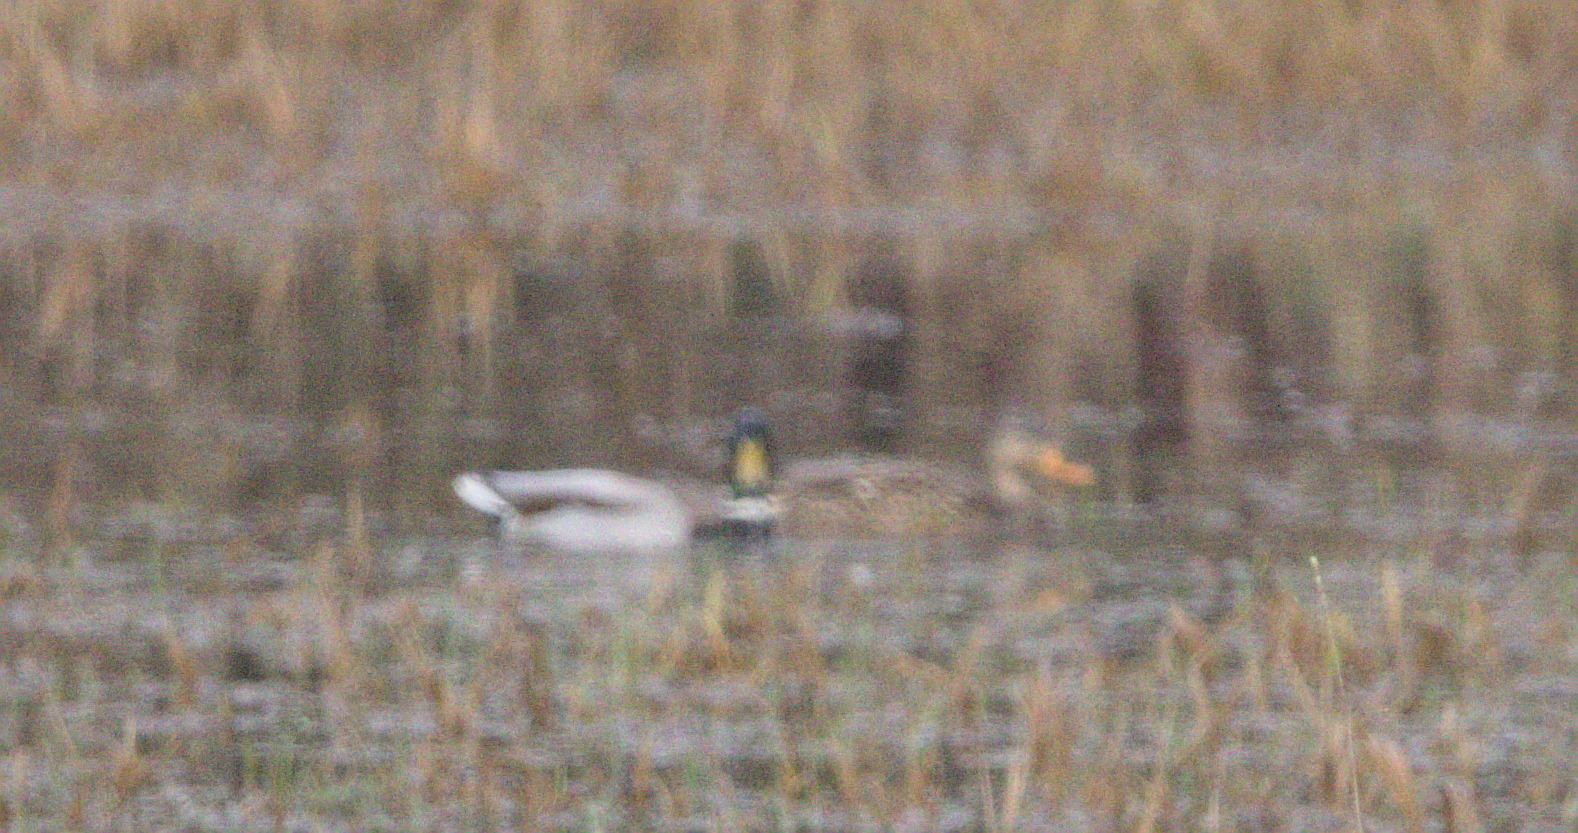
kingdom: Animalia
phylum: Chordata
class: Aves
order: Anseriformes
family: Anatidae
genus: Anas
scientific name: Anas platyrhynchos
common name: Mallard
